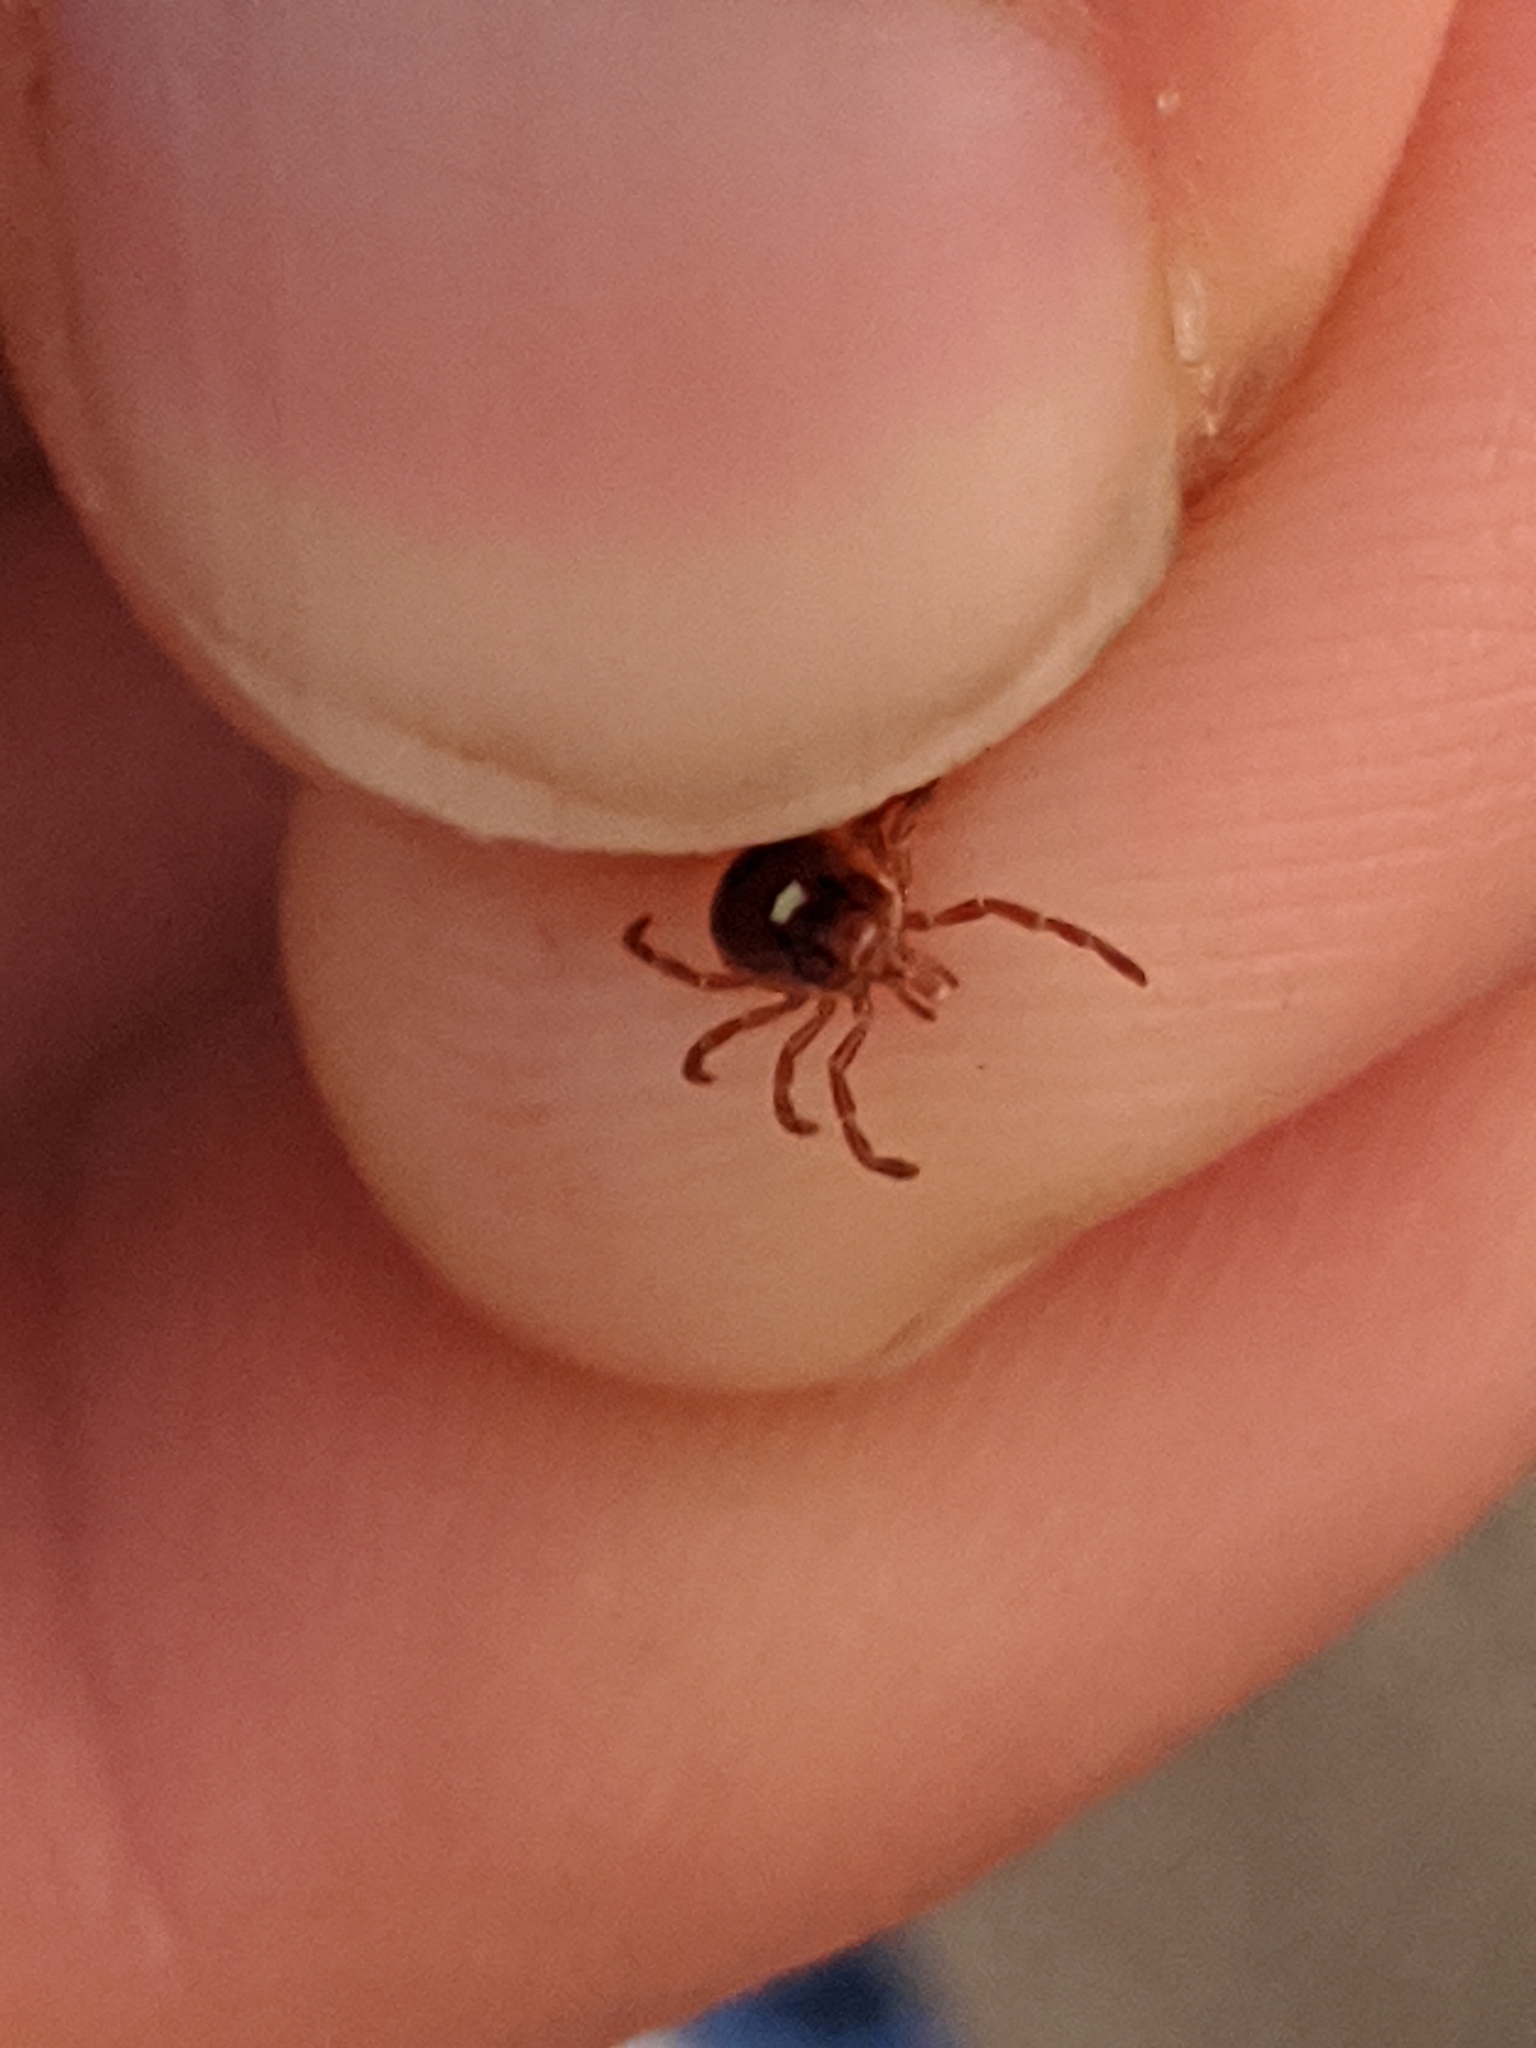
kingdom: Animalia
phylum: Arthropoda
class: Arachnida
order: Ixodida
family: Ixodidae
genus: Amblyomma
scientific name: Amblyomma americanum
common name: Lone star tick
